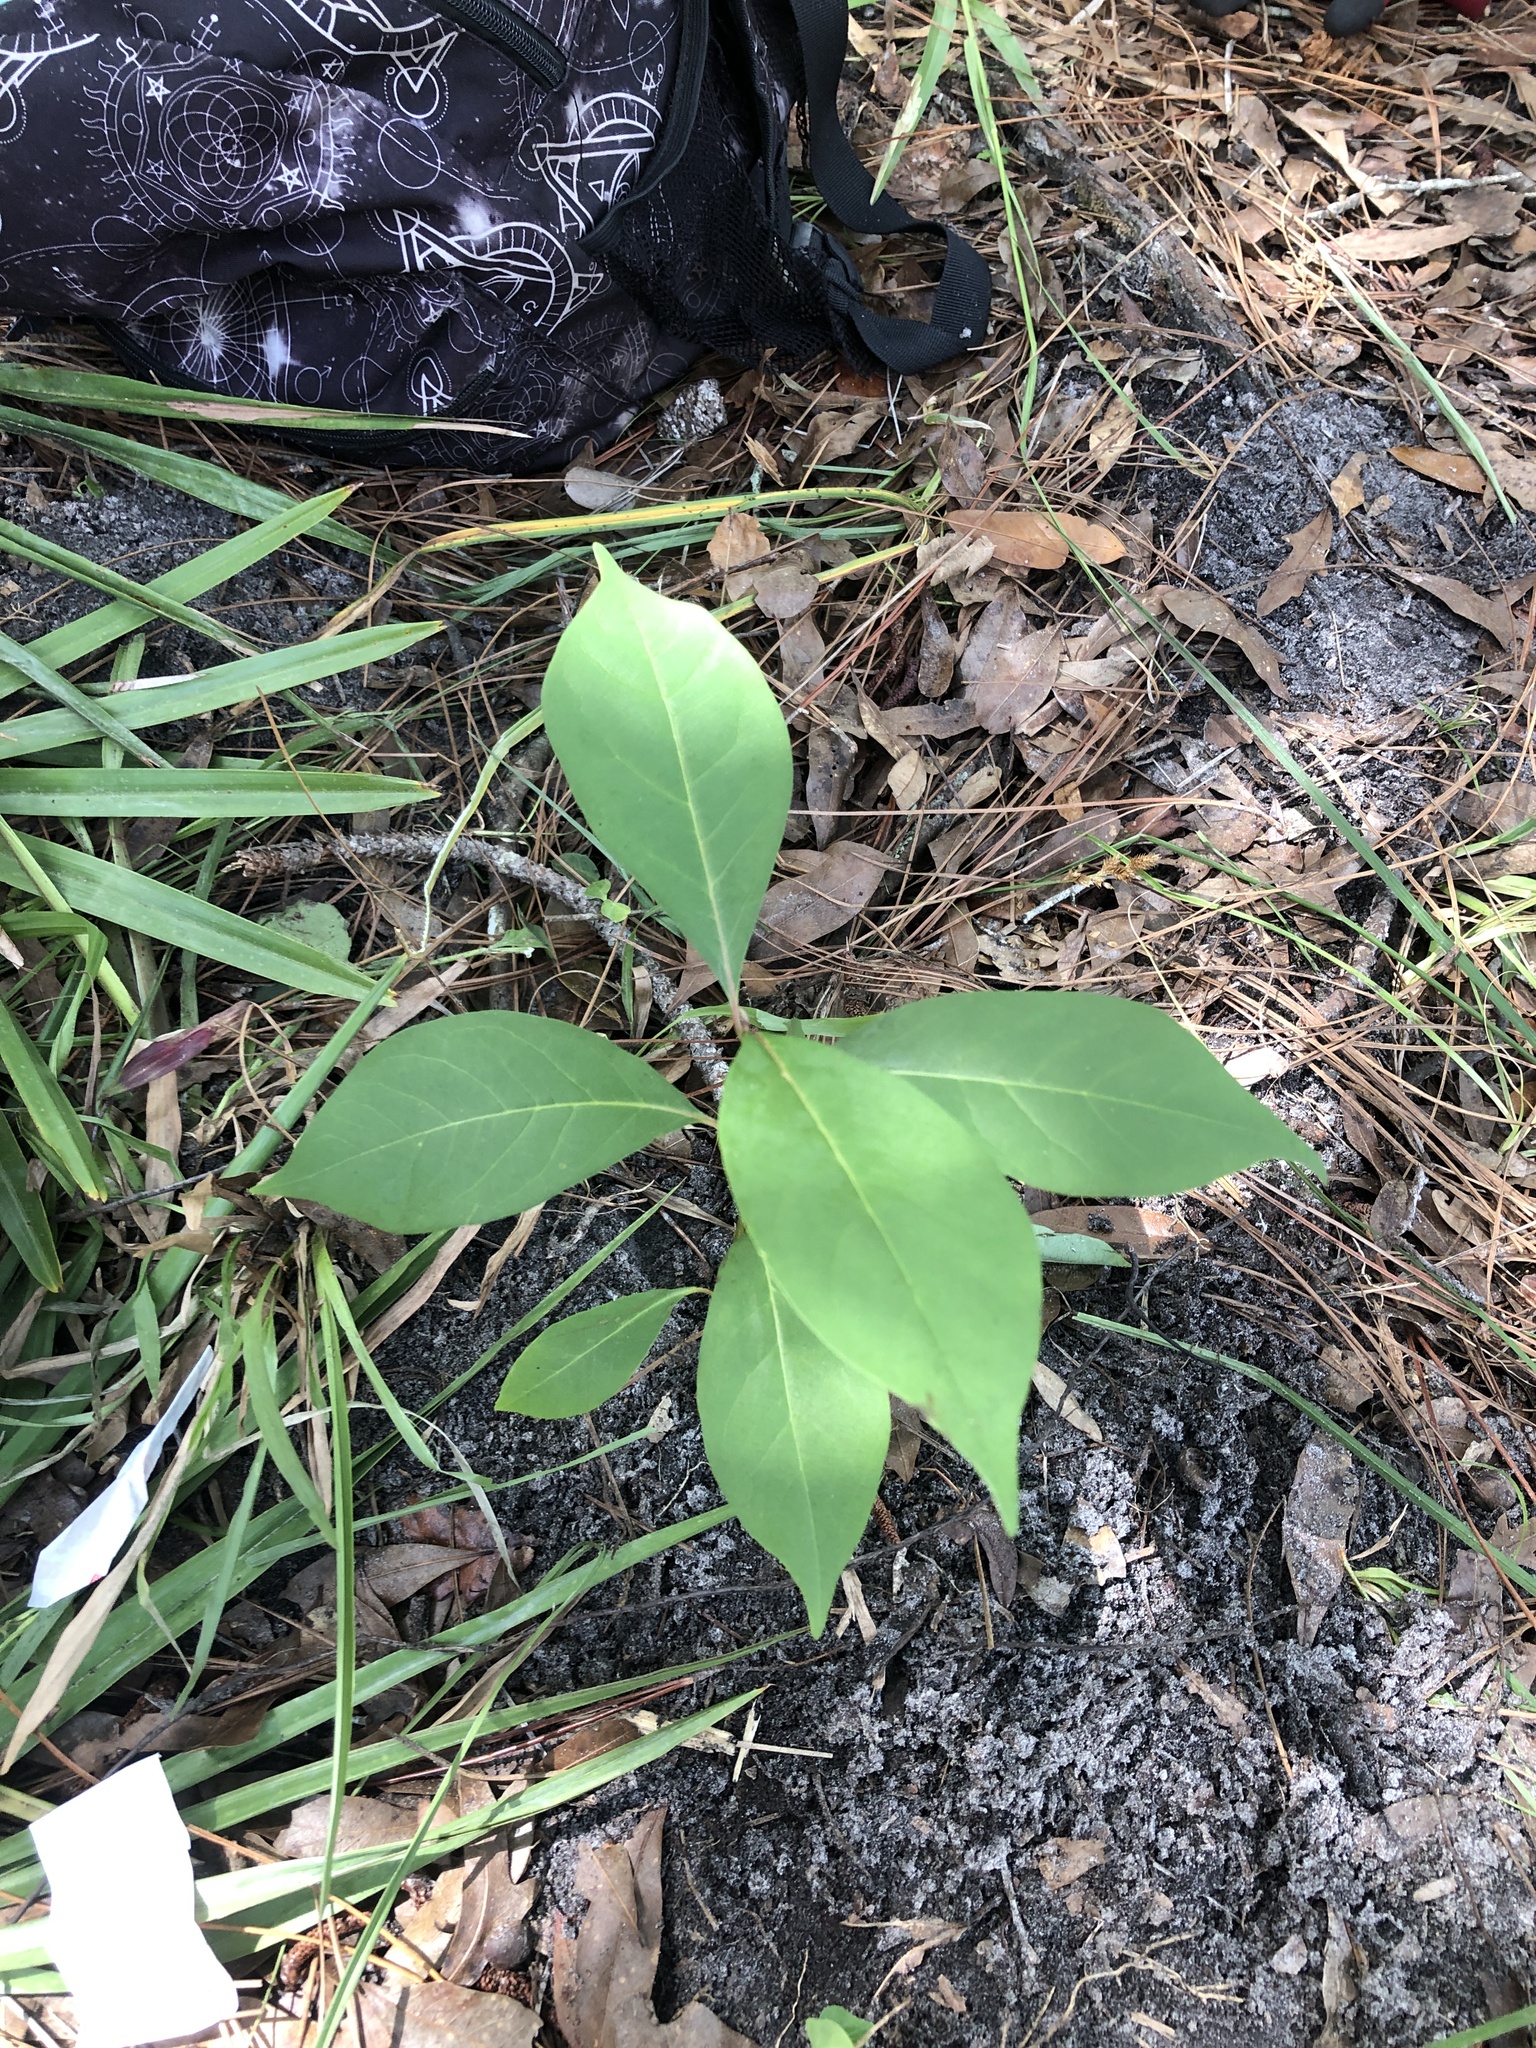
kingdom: Plantae
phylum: Tracheophyta
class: Magnoliopsida
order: Ericales
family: Ebenaceae
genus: Diospyros
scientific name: Diospyros virginiana
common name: Persimmon
